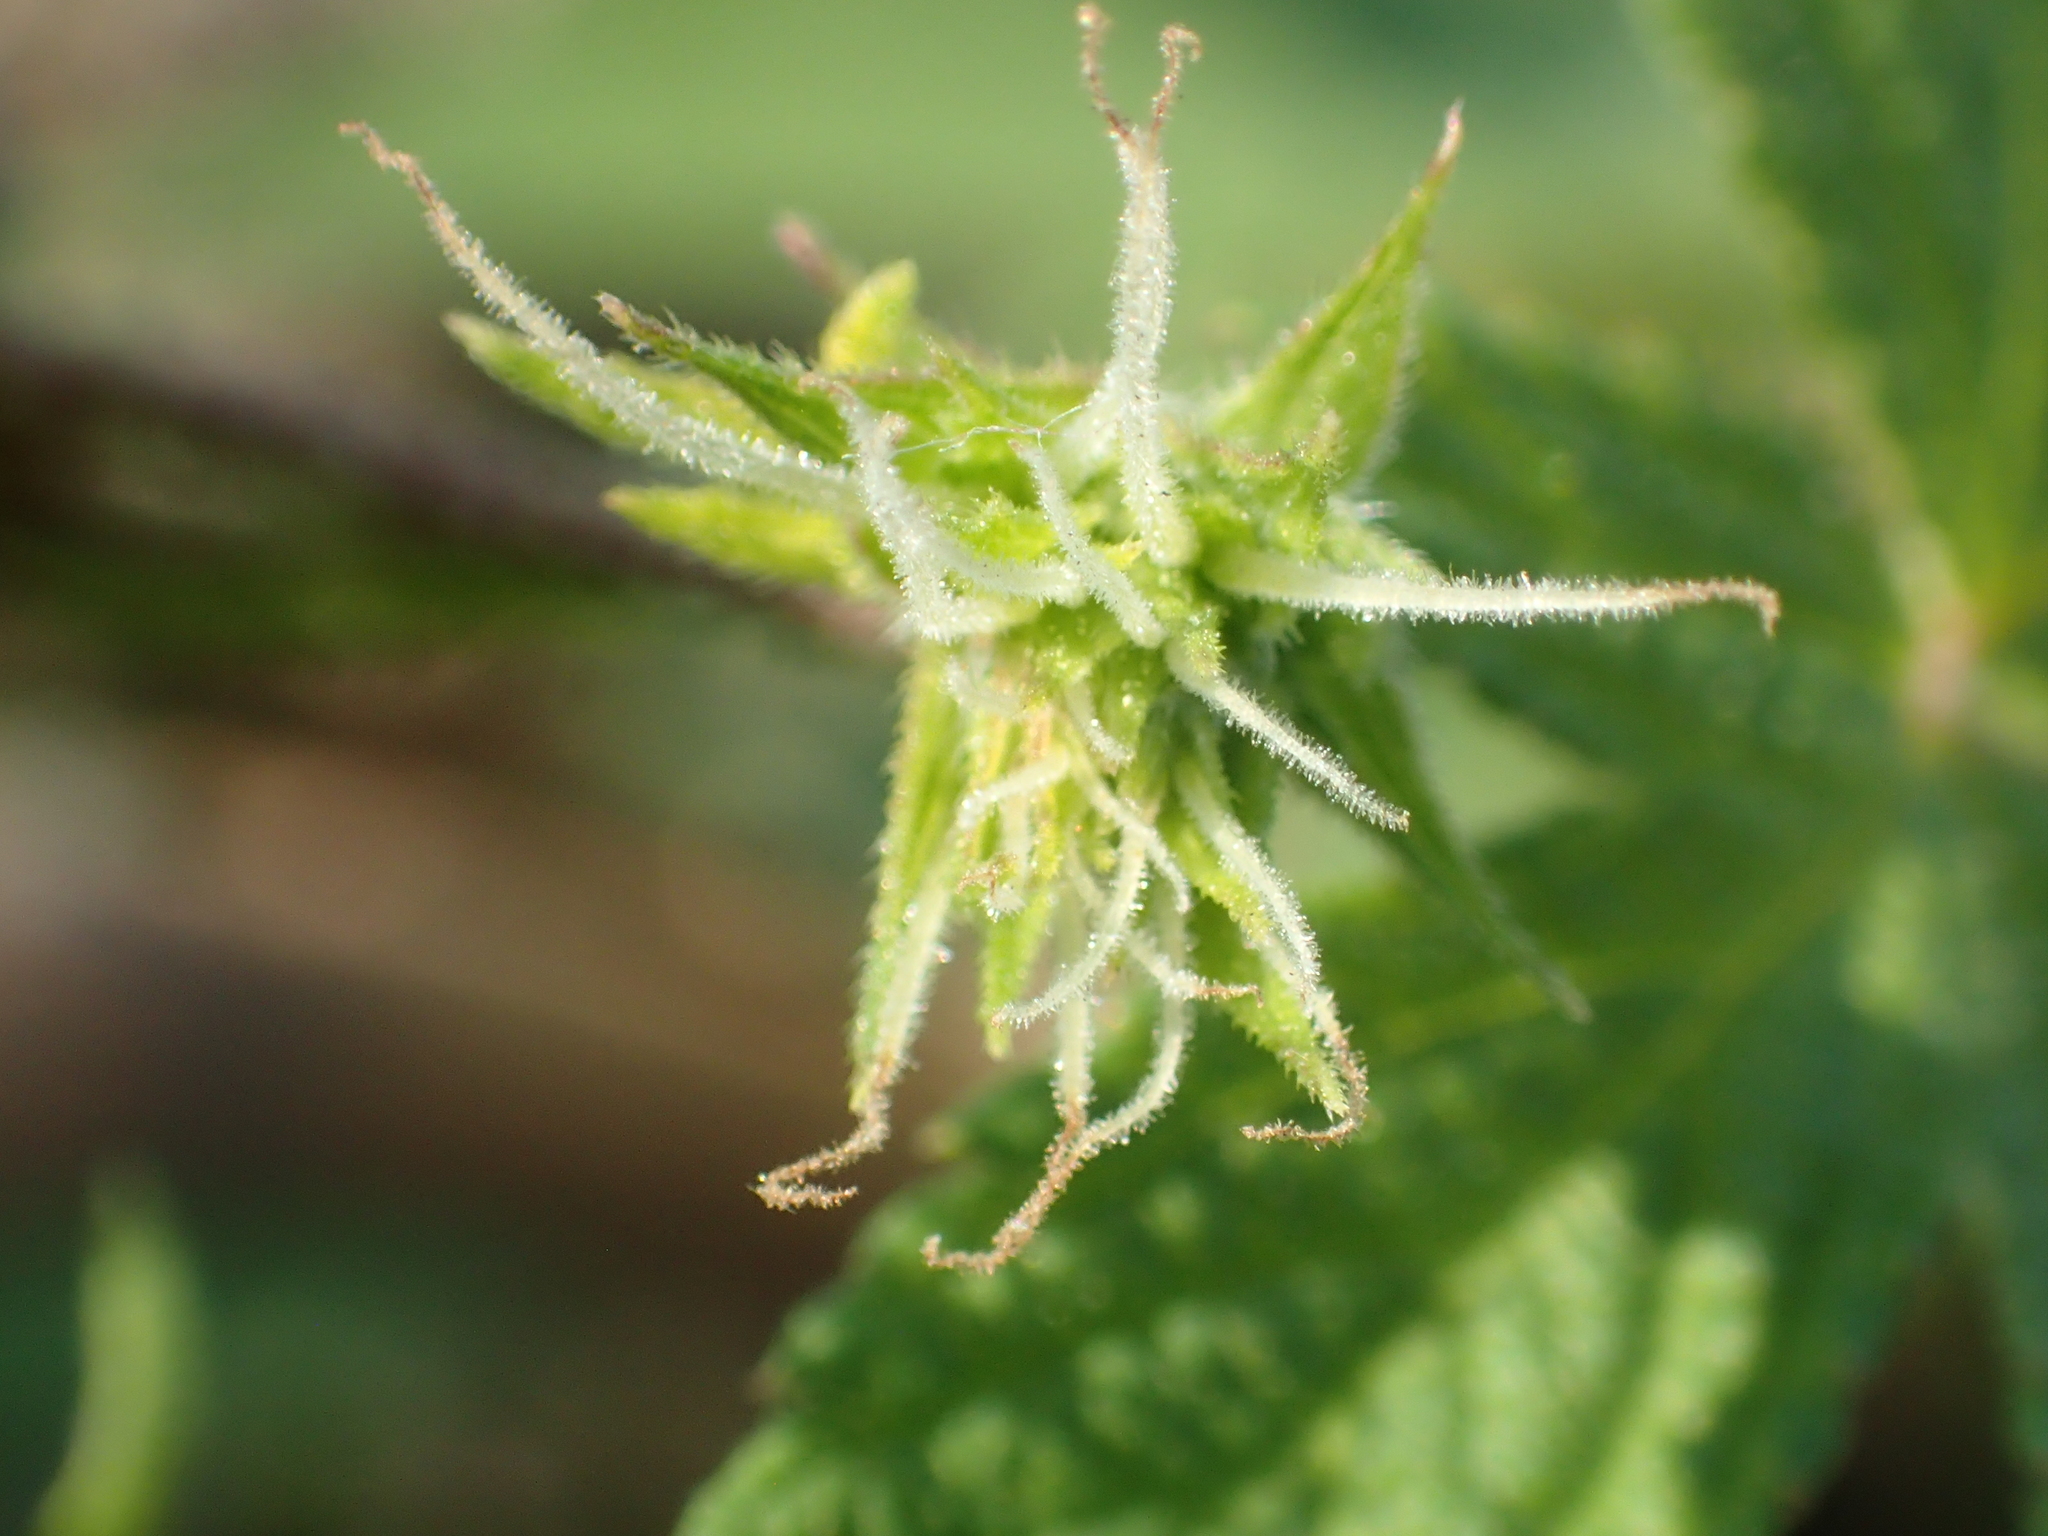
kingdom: Plantae
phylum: Tracheophyta
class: Magnoliopsida
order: Rosales
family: Cannabaceae
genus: Humulus
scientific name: Humulus scandens
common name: Japanese hop
